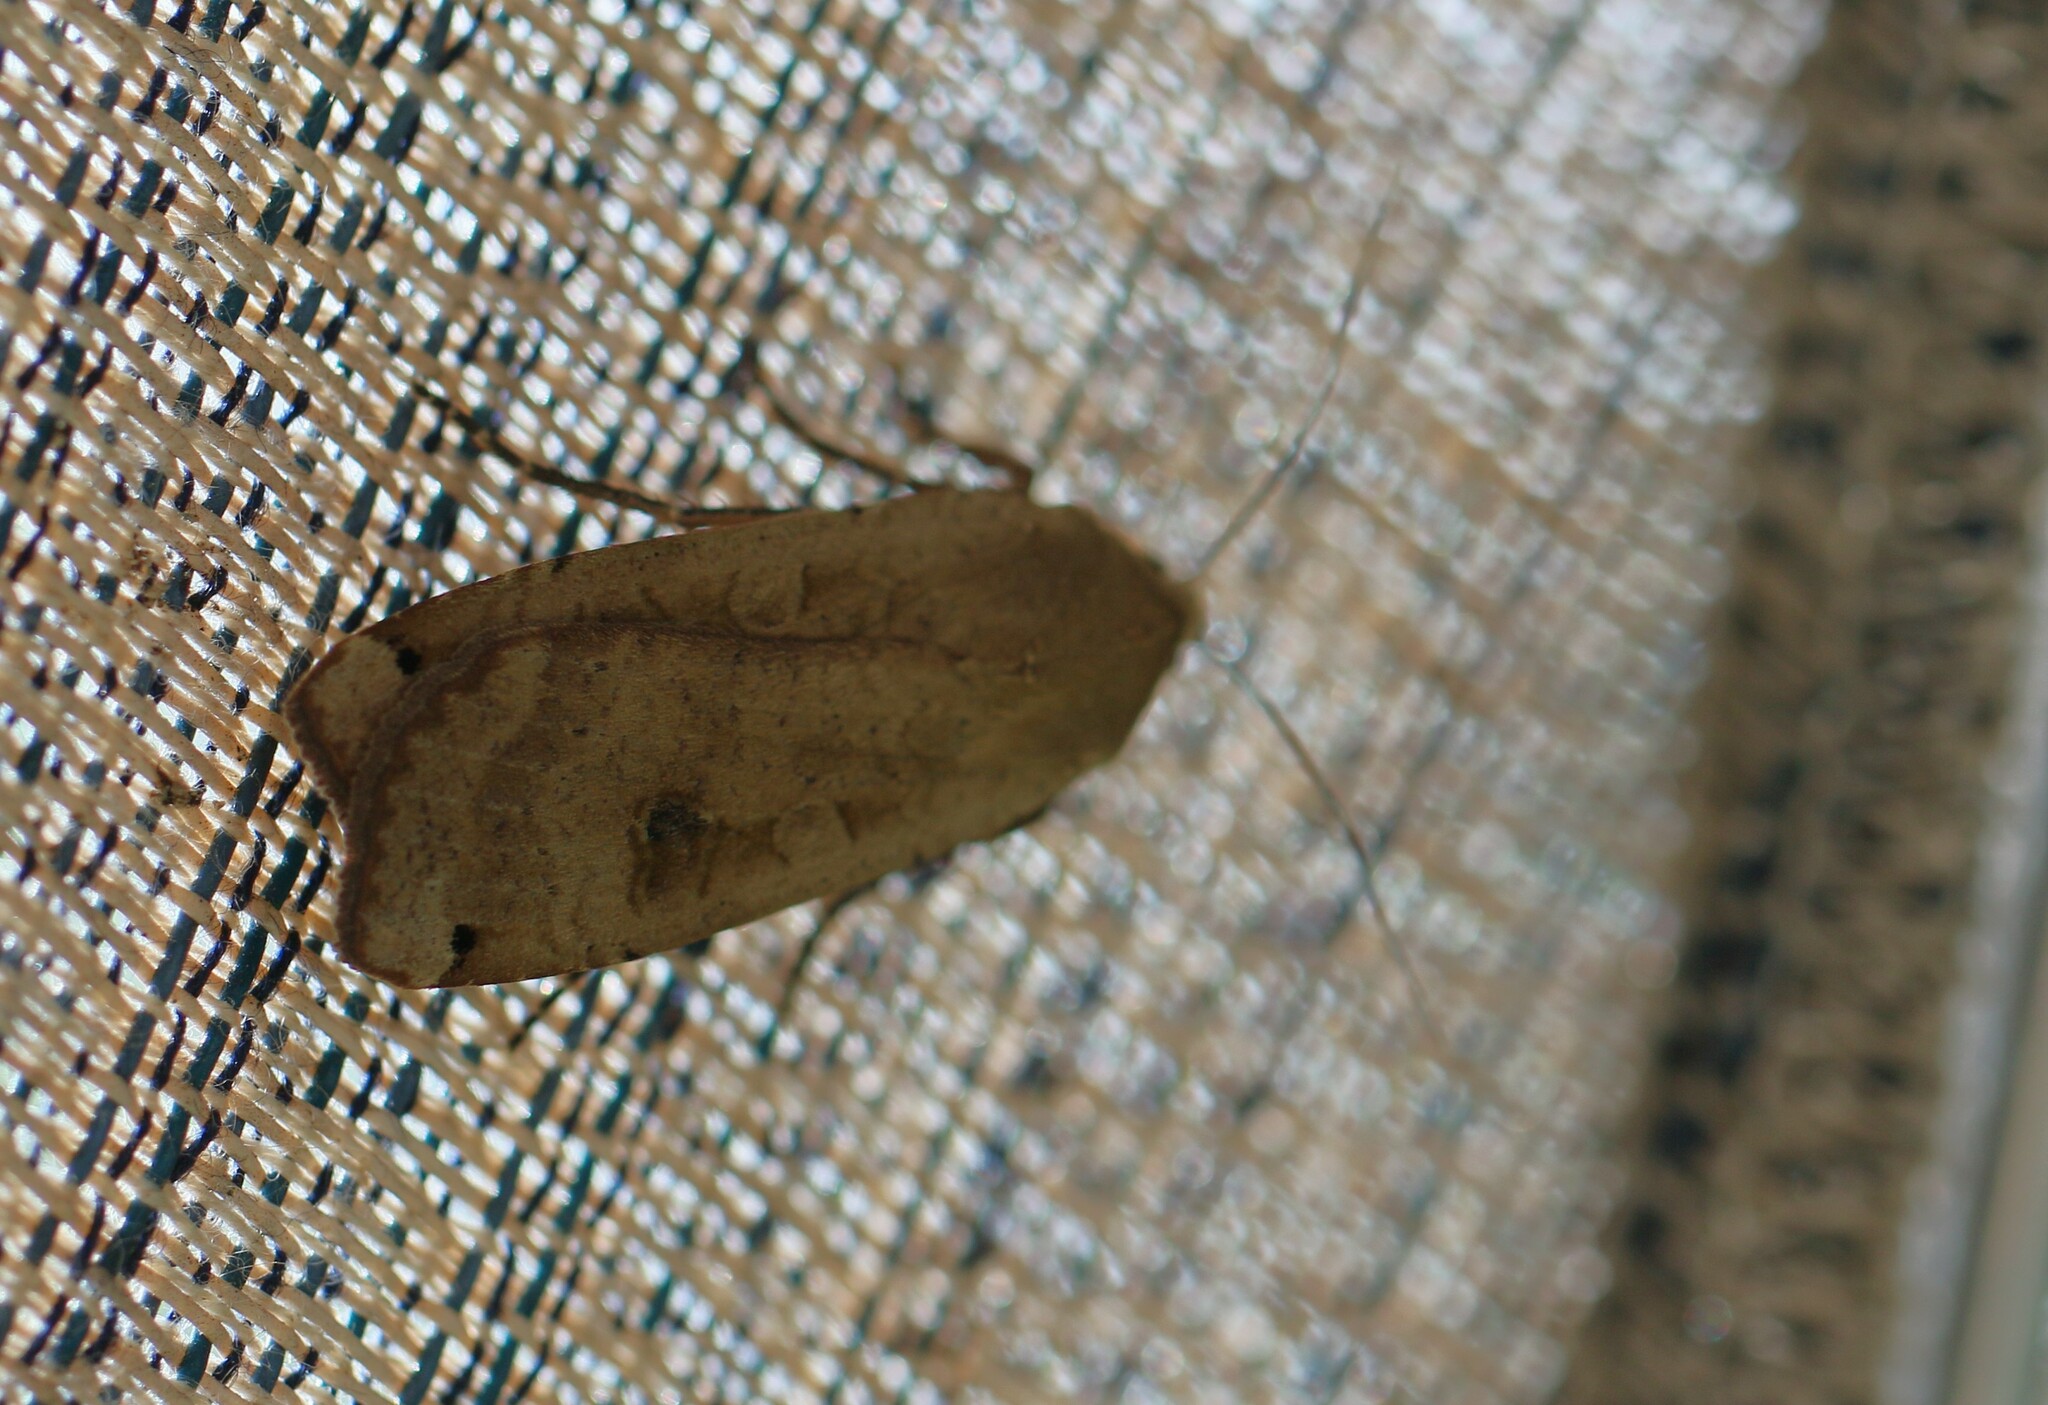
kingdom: Animalia
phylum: Arthropoda
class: Insecta
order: Lepidoptera
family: Noctuidae
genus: Noctua
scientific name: Noctua pronuba
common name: Large yellow underwing
